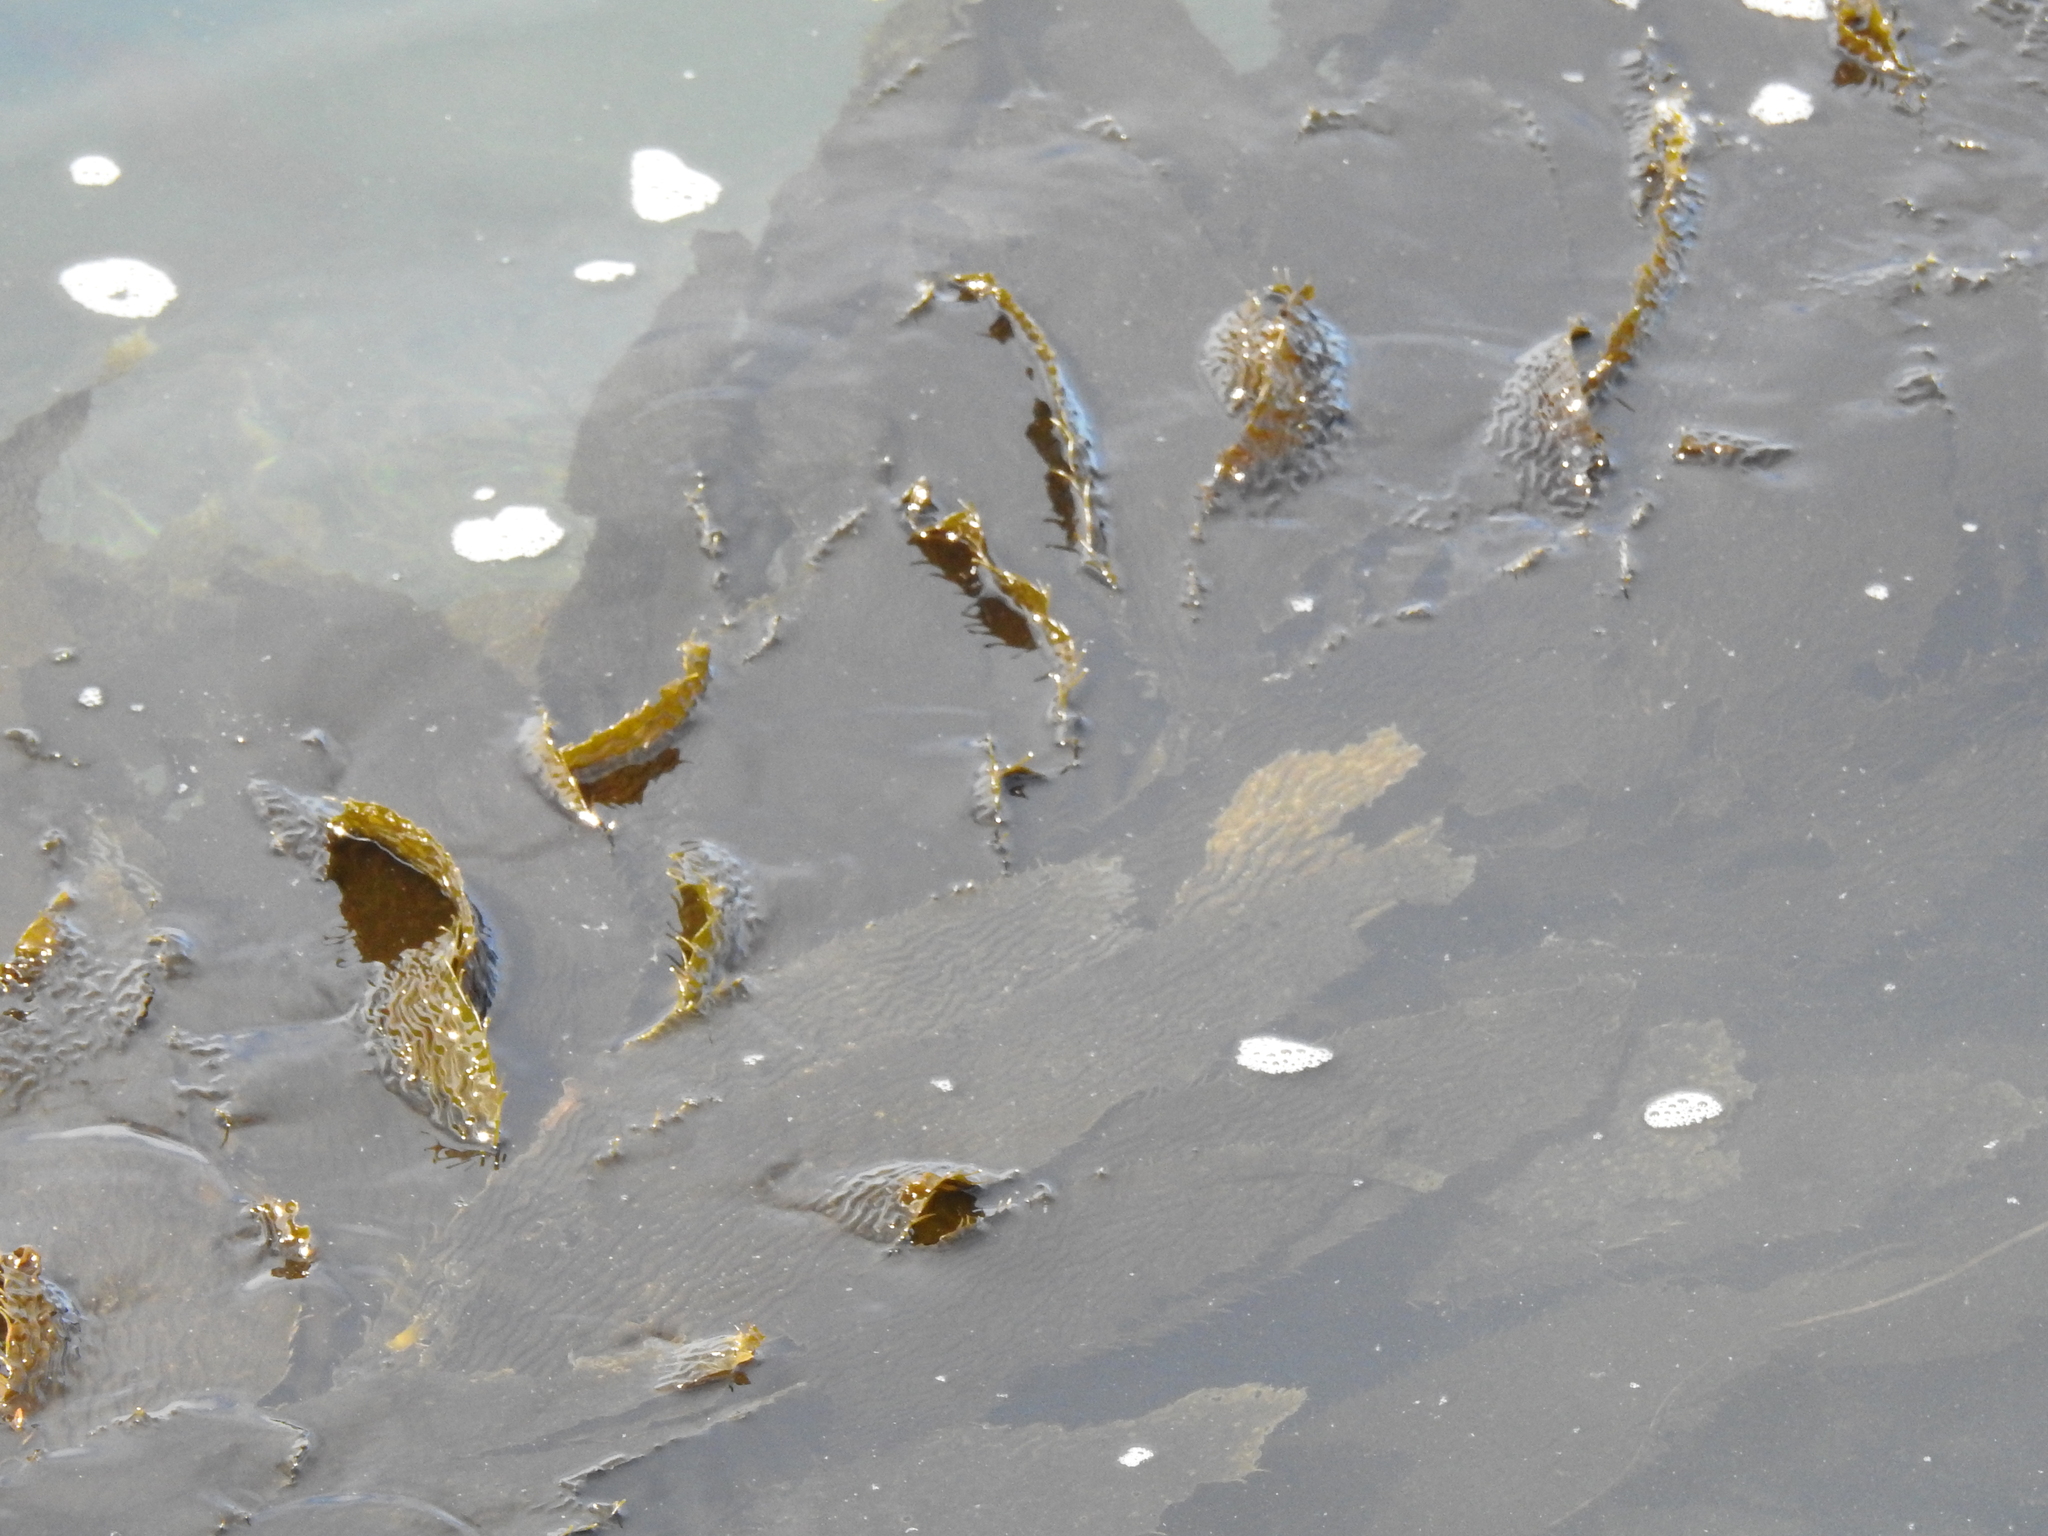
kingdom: Chromista
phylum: Ochrophyta
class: Phaeophyceae
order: Laminariales
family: Laminariaceae
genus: Macrocystis
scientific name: Macrocystis pyrifera
